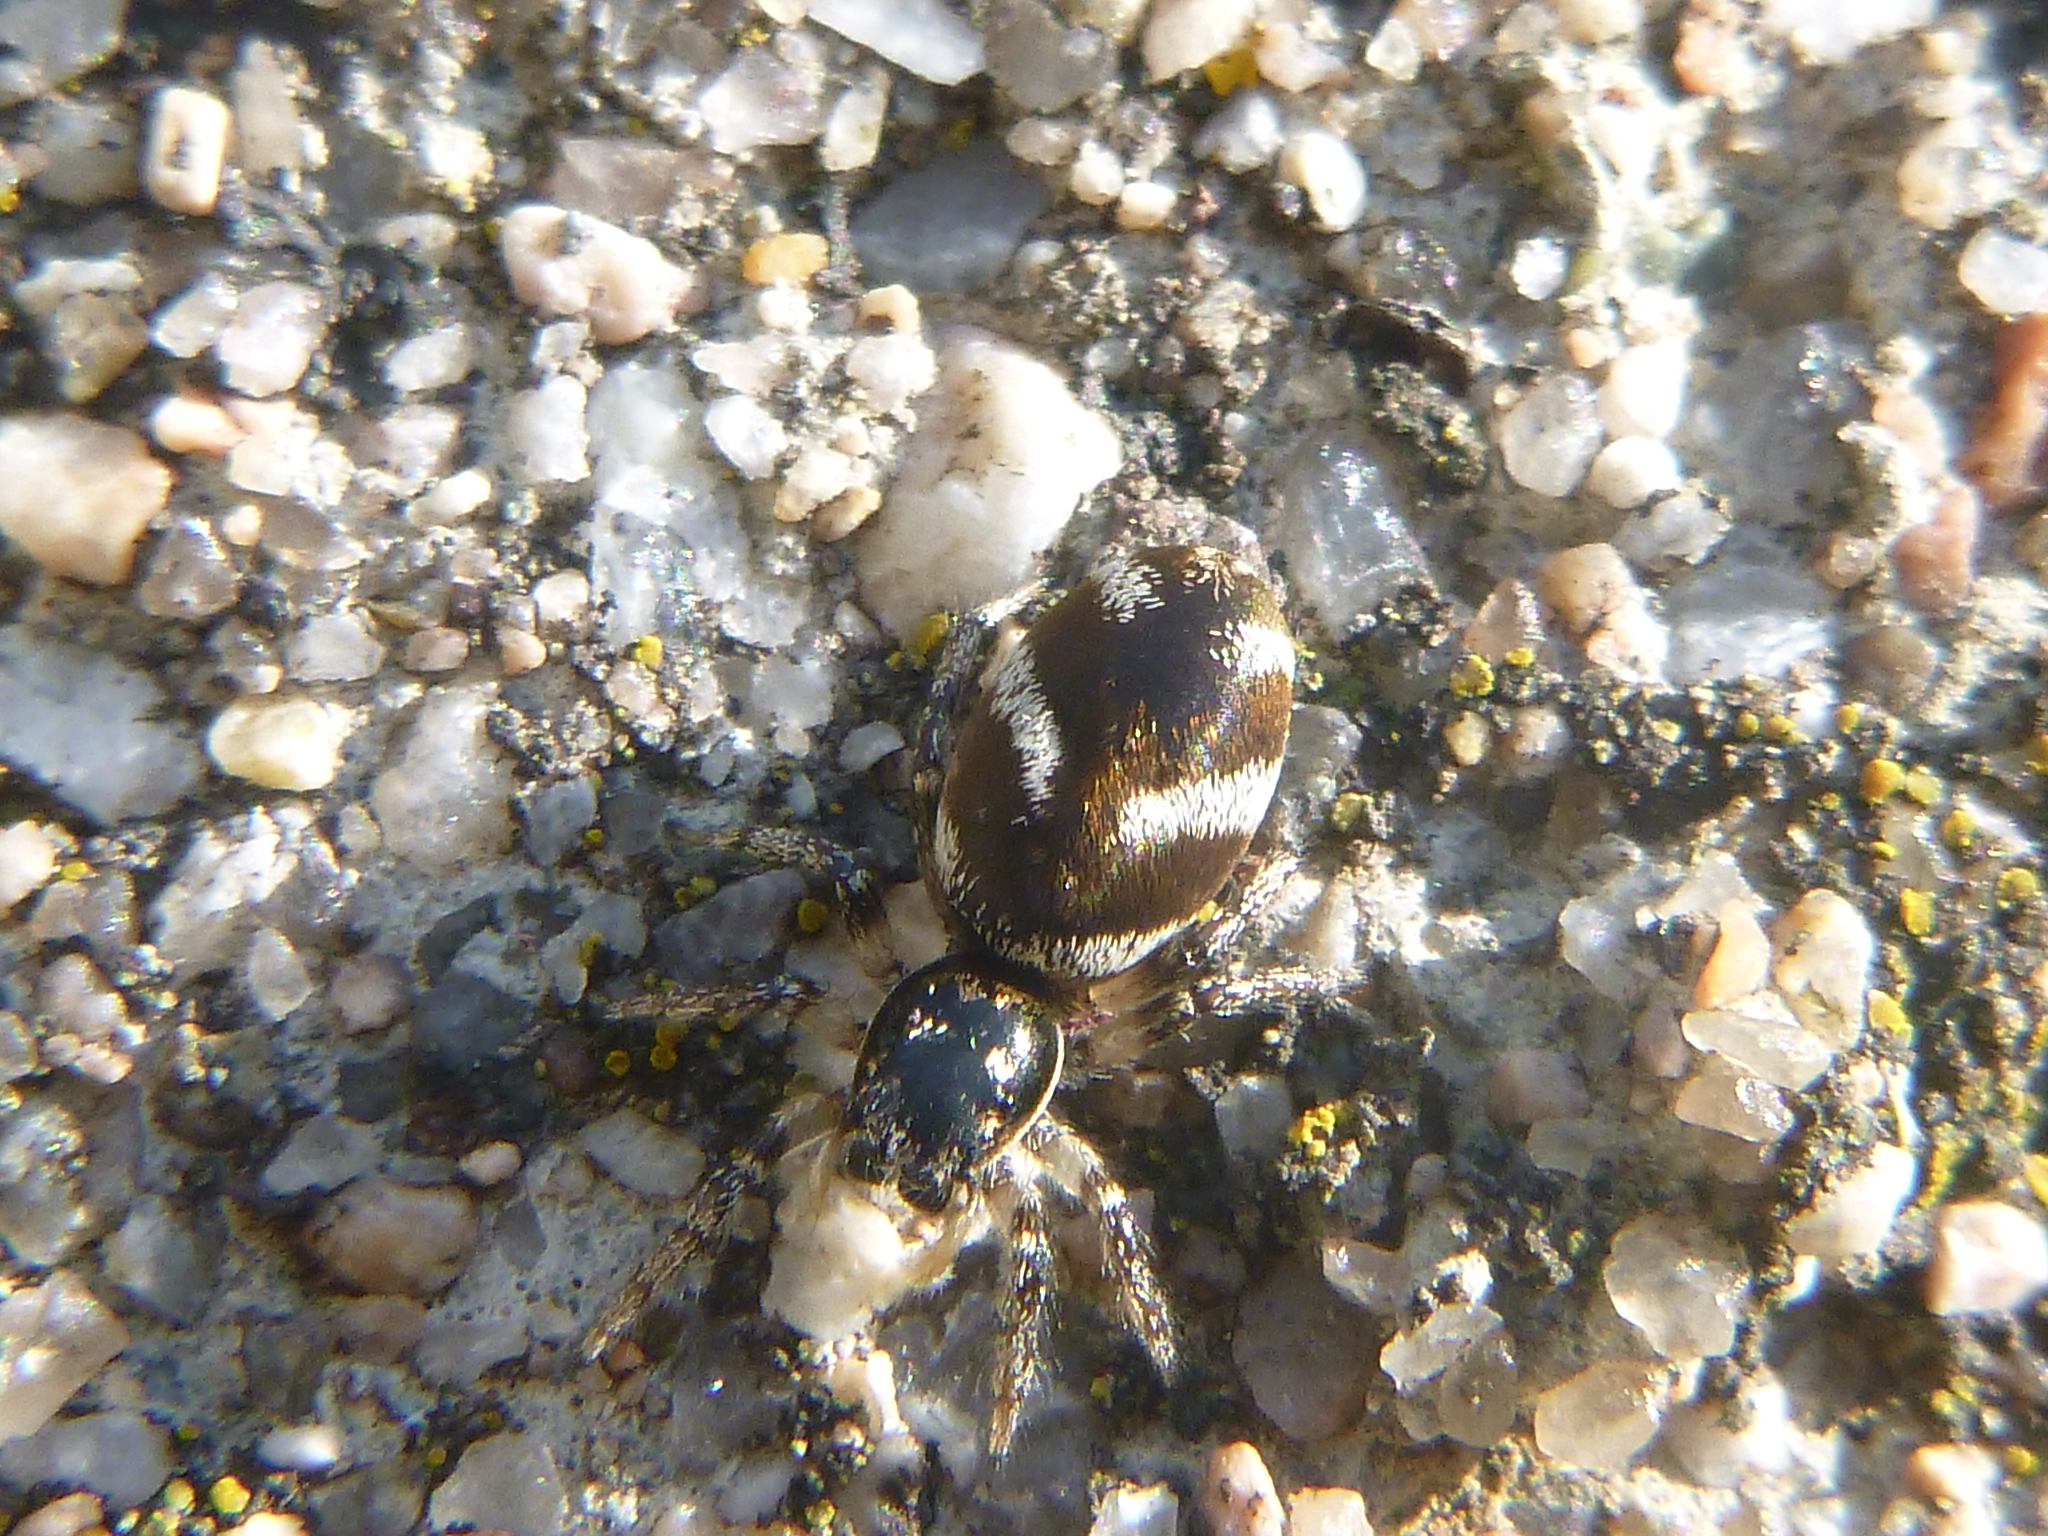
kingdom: Animalia
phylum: Arthropoda
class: Arachnida
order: Araneae
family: Salticidae
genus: Salticus
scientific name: Salticus scenicus
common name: Zebra jumper
